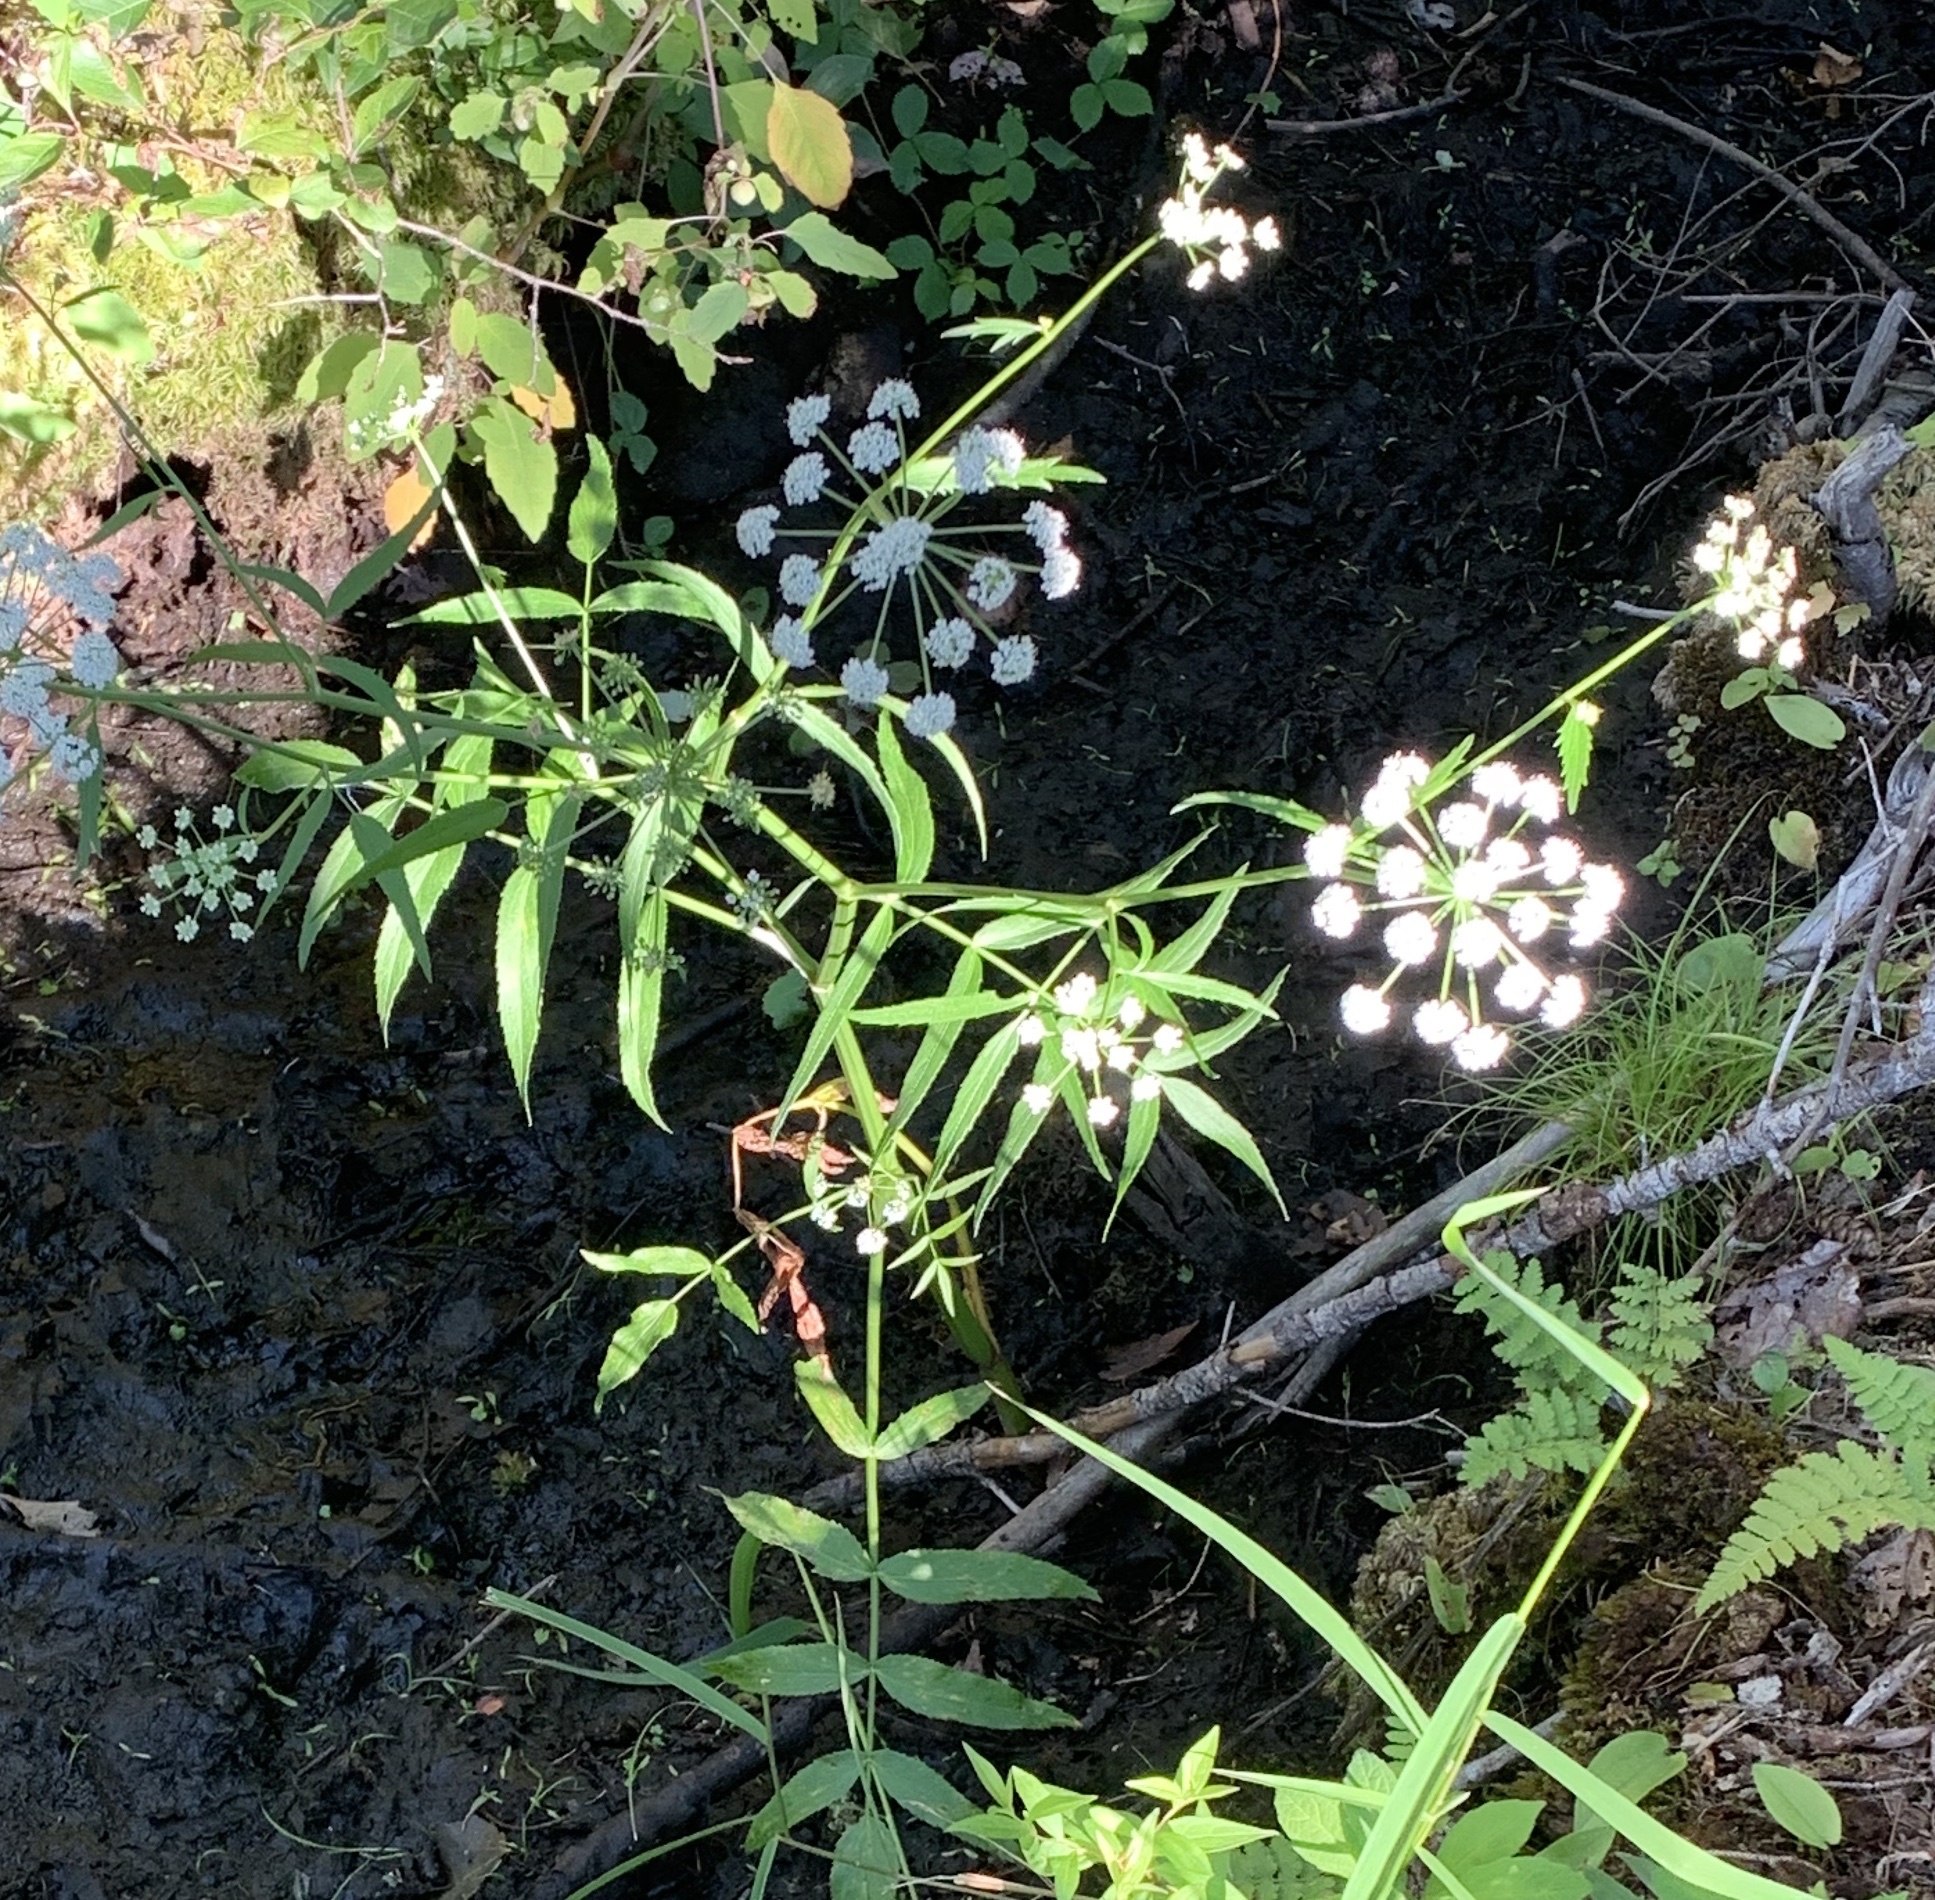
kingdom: Plantae
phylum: Tracheophyta
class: Magnoliopsida
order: Apiales
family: Apiaceae
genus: Sium
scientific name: Sium suave
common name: Hemlock water-parsnip
